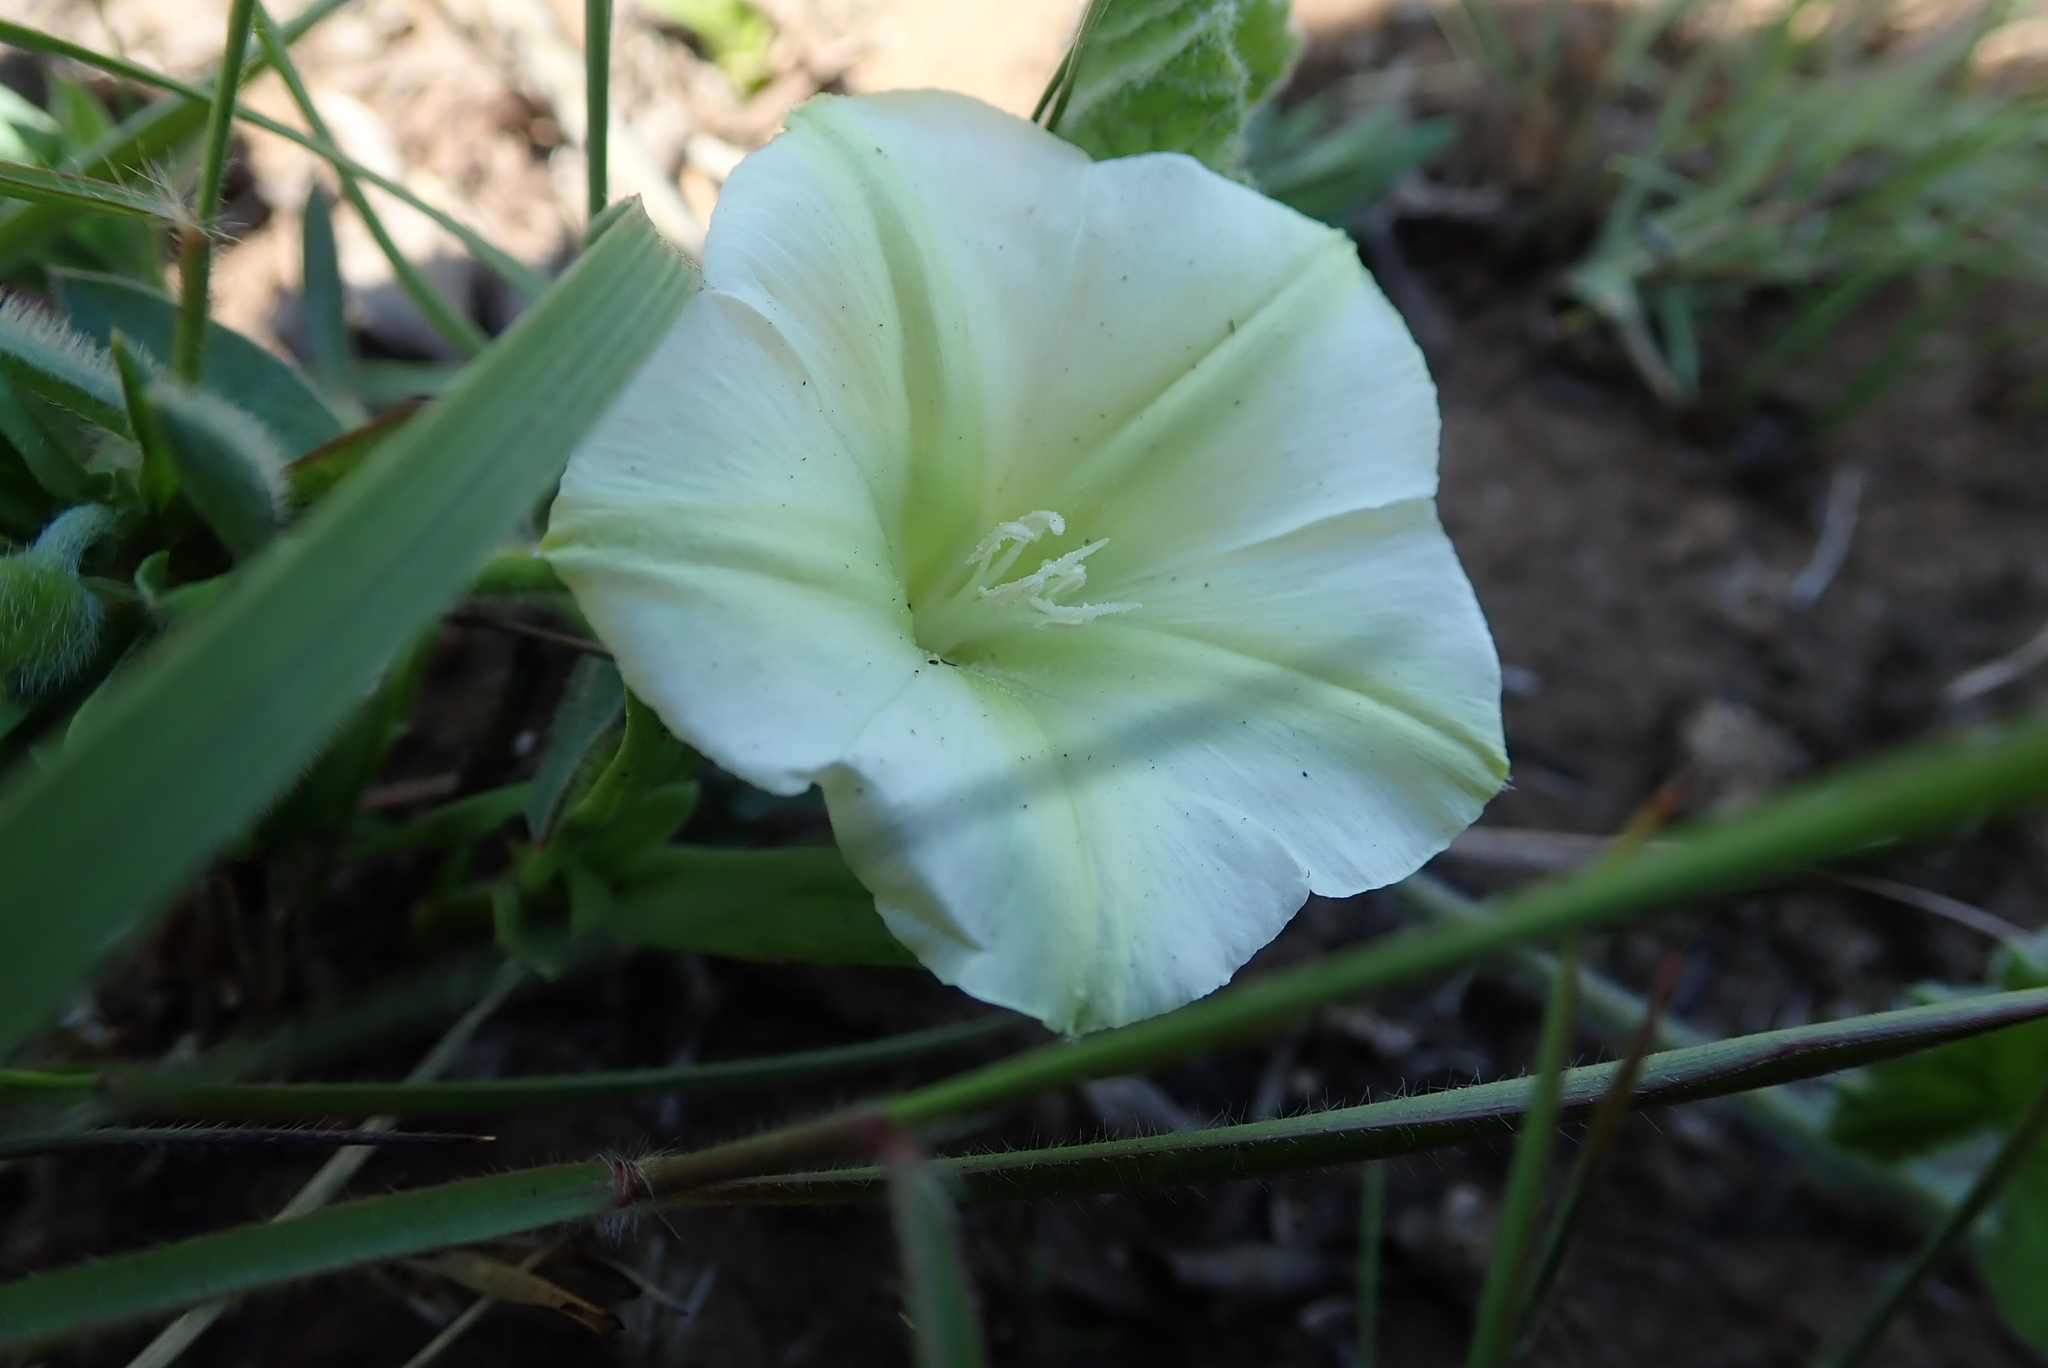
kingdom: Plantae
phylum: Tracheophyta
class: Magnoliopsida
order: Solanales
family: Convolvulaceae
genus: Convolvulus
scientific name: Convolvulus natalensis
